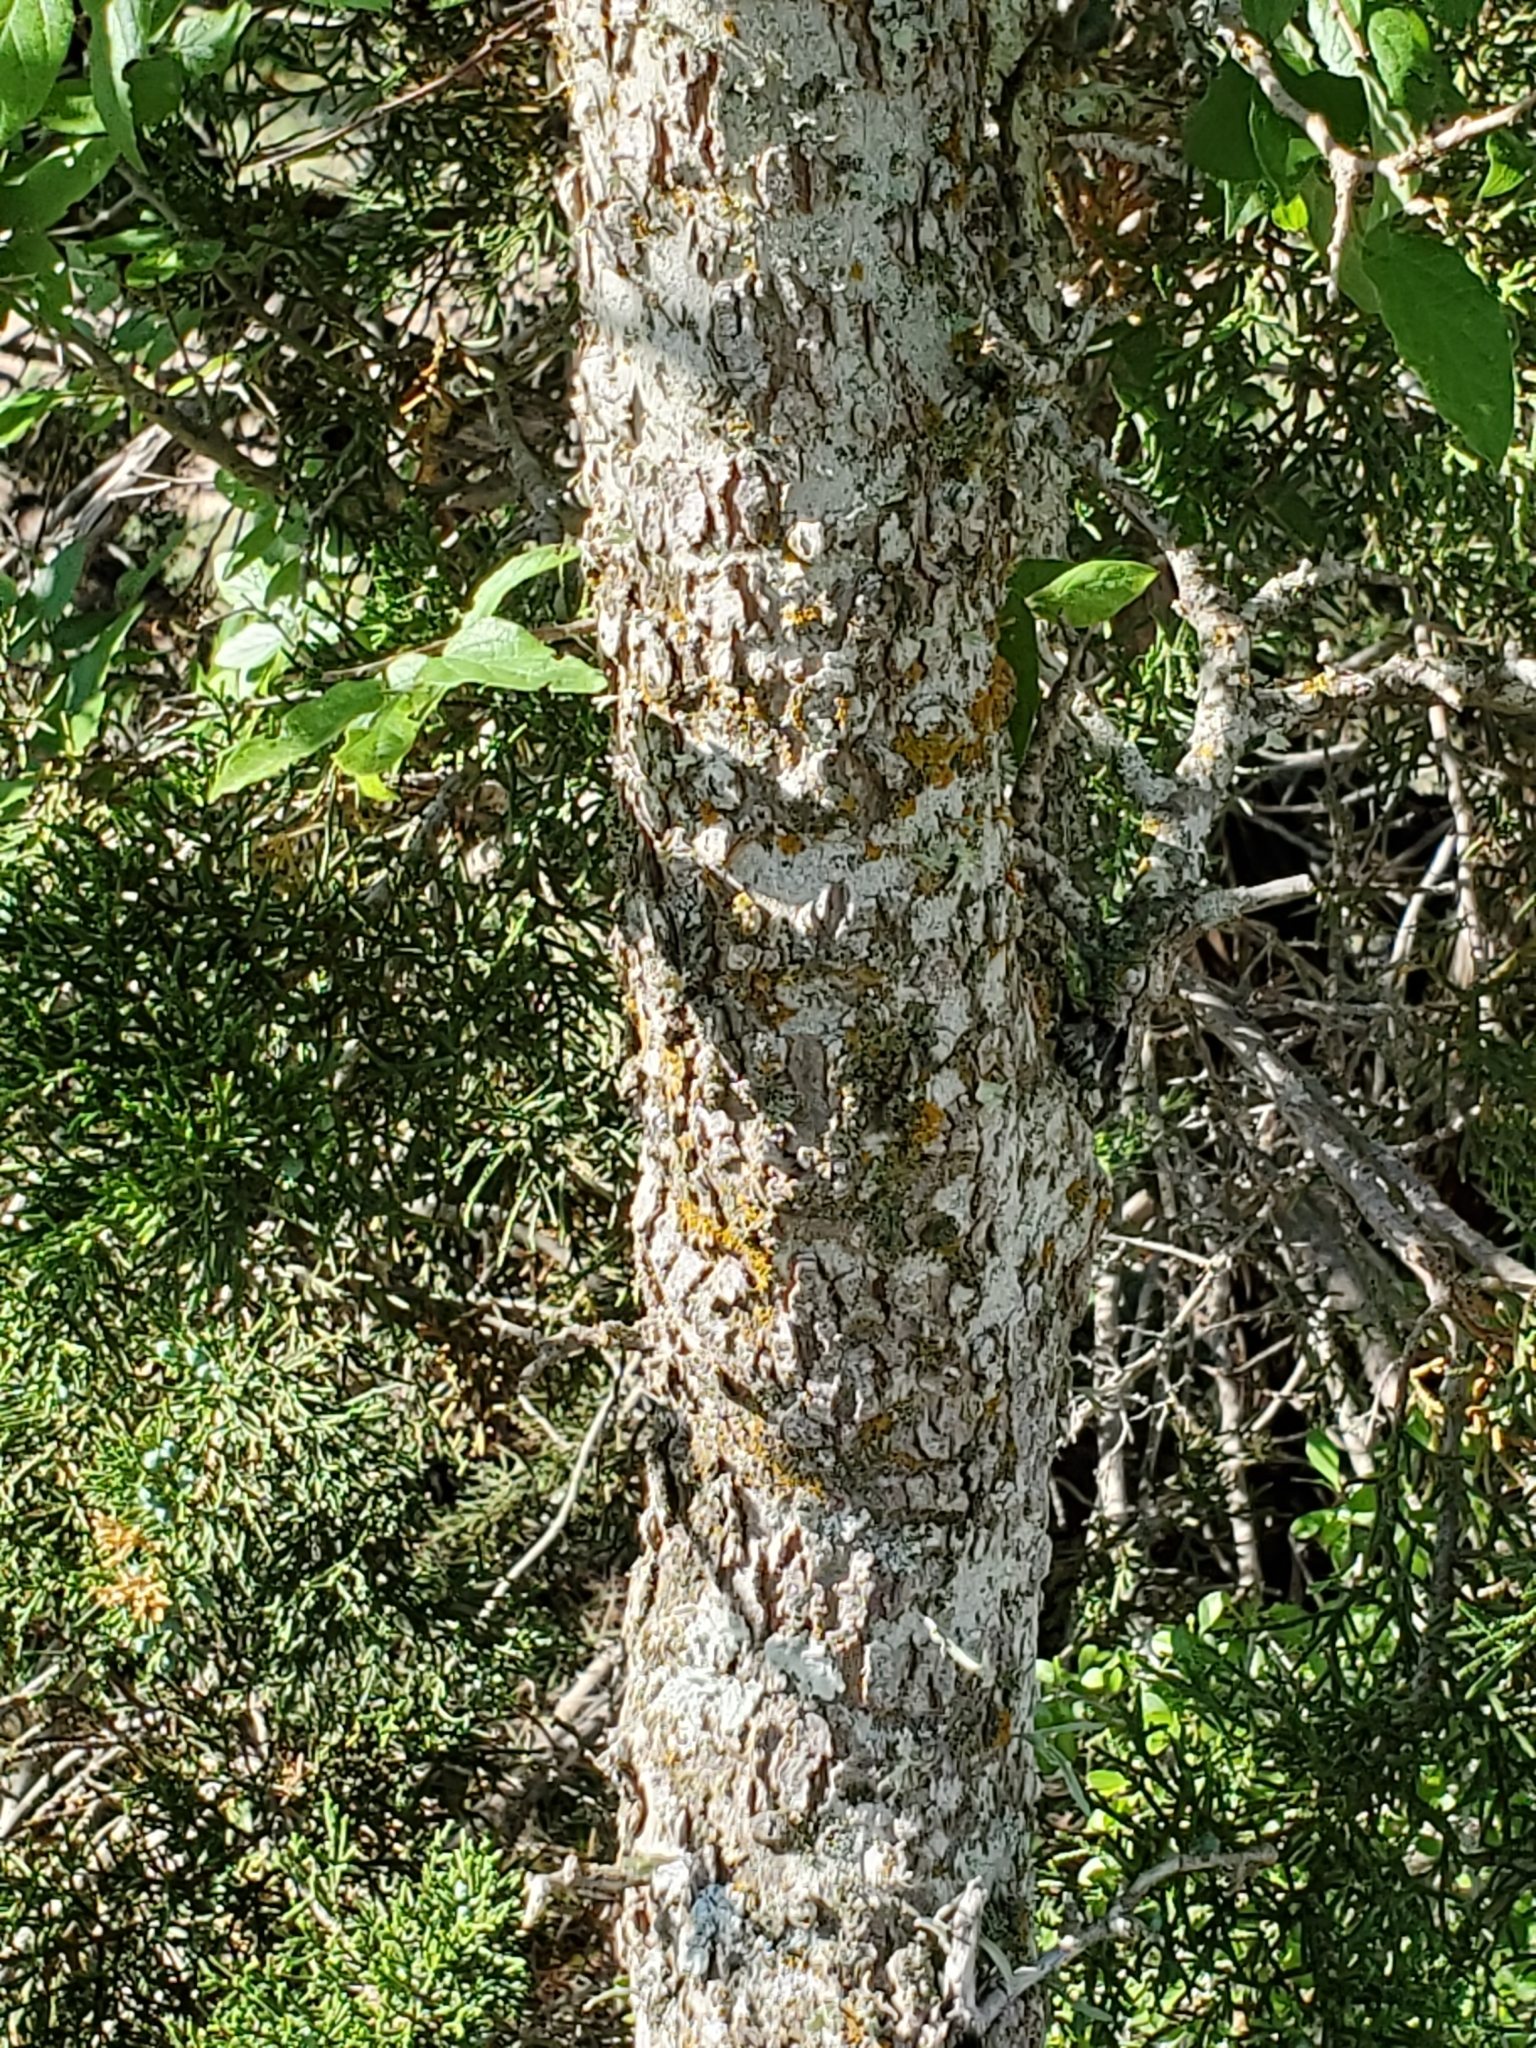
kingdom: Plantae
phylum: Tracheophyta
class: Magnoliopsida
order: Rosales
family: Cannabaceae
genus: Celtis
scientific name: Celtis reticulata
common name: Netleaf hackberry
